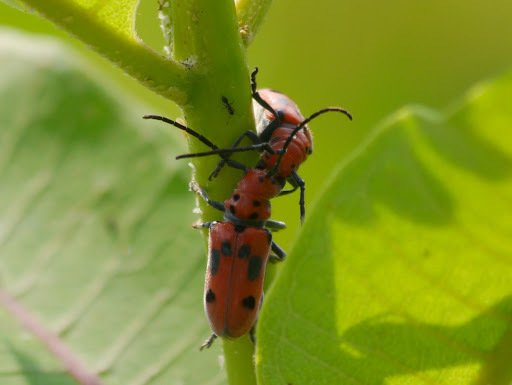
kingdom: Animalia
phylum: Arthropoda
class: Insecta
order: Coleoptera
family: Cerambycidae
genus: Tetraopes
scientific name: Tetraopes tetrophthalmus
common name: Red milkweed beetle
